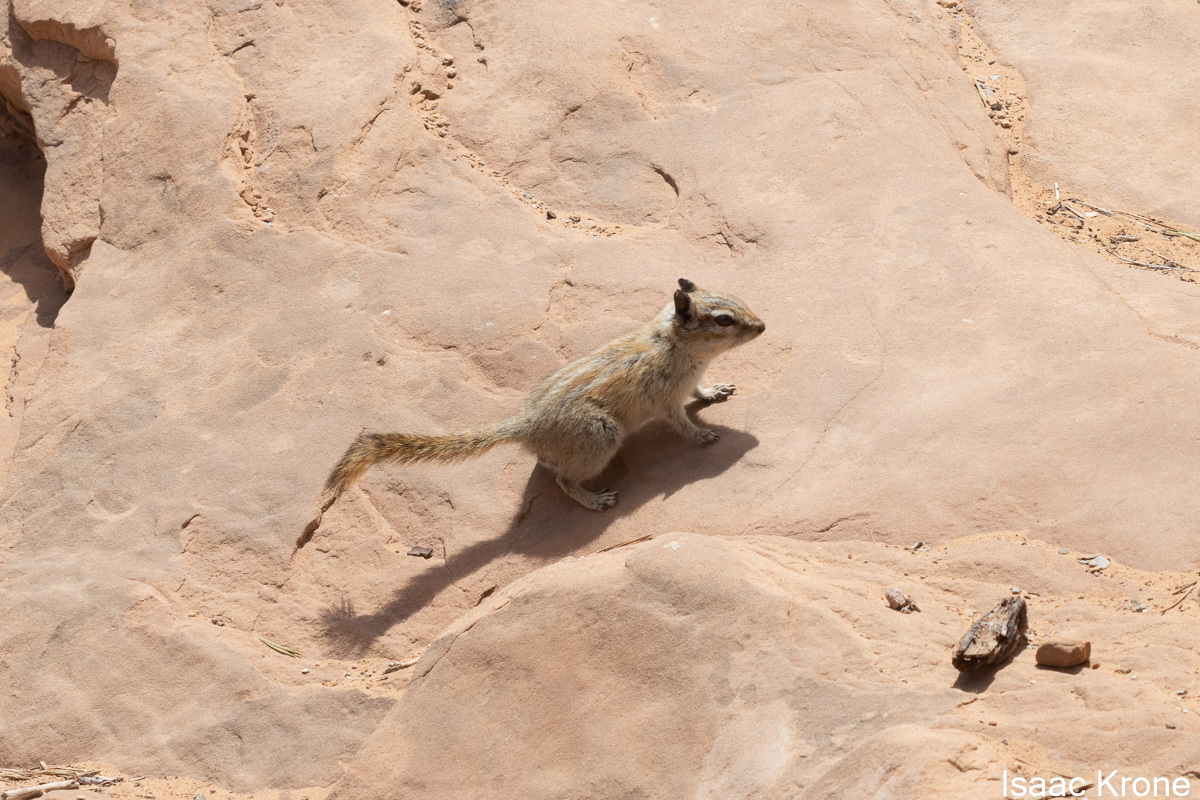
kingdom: Animalia
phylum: Chordata
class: Mammalia
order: Rodentia
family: Sciuridae
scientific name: Sciuridae
